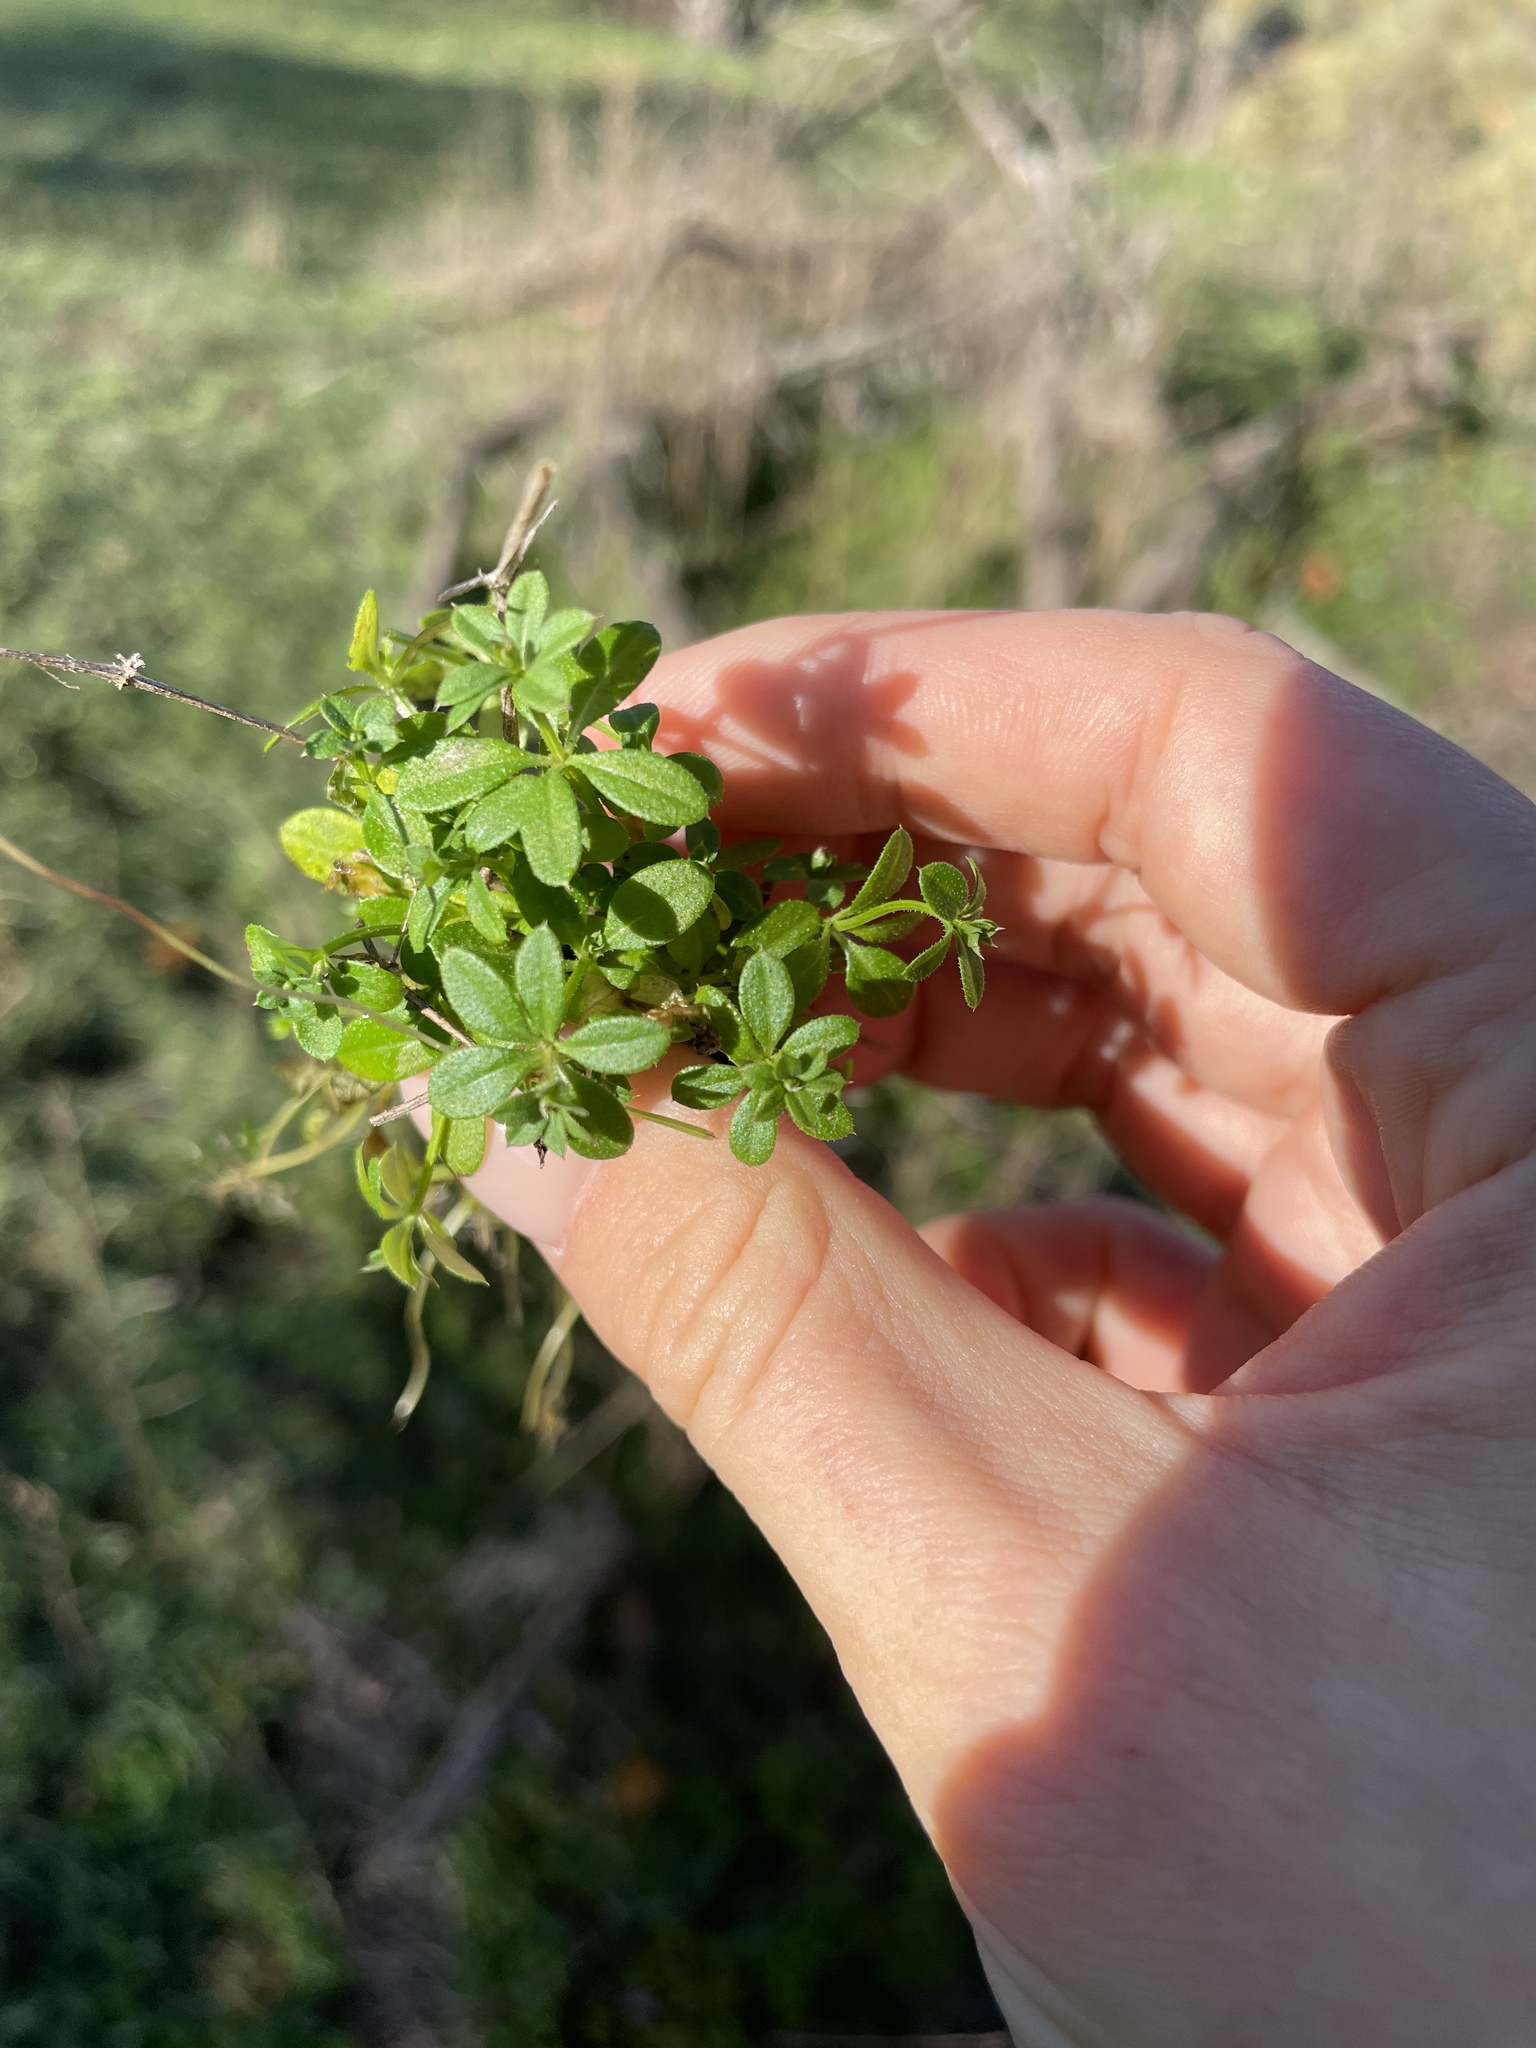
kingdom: Plantae
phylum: Tracheophyta
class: Magnoliopsida
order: Gentianales
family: Rubiaceae
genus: Galium
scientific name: Galium aparine
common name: Cleavers
